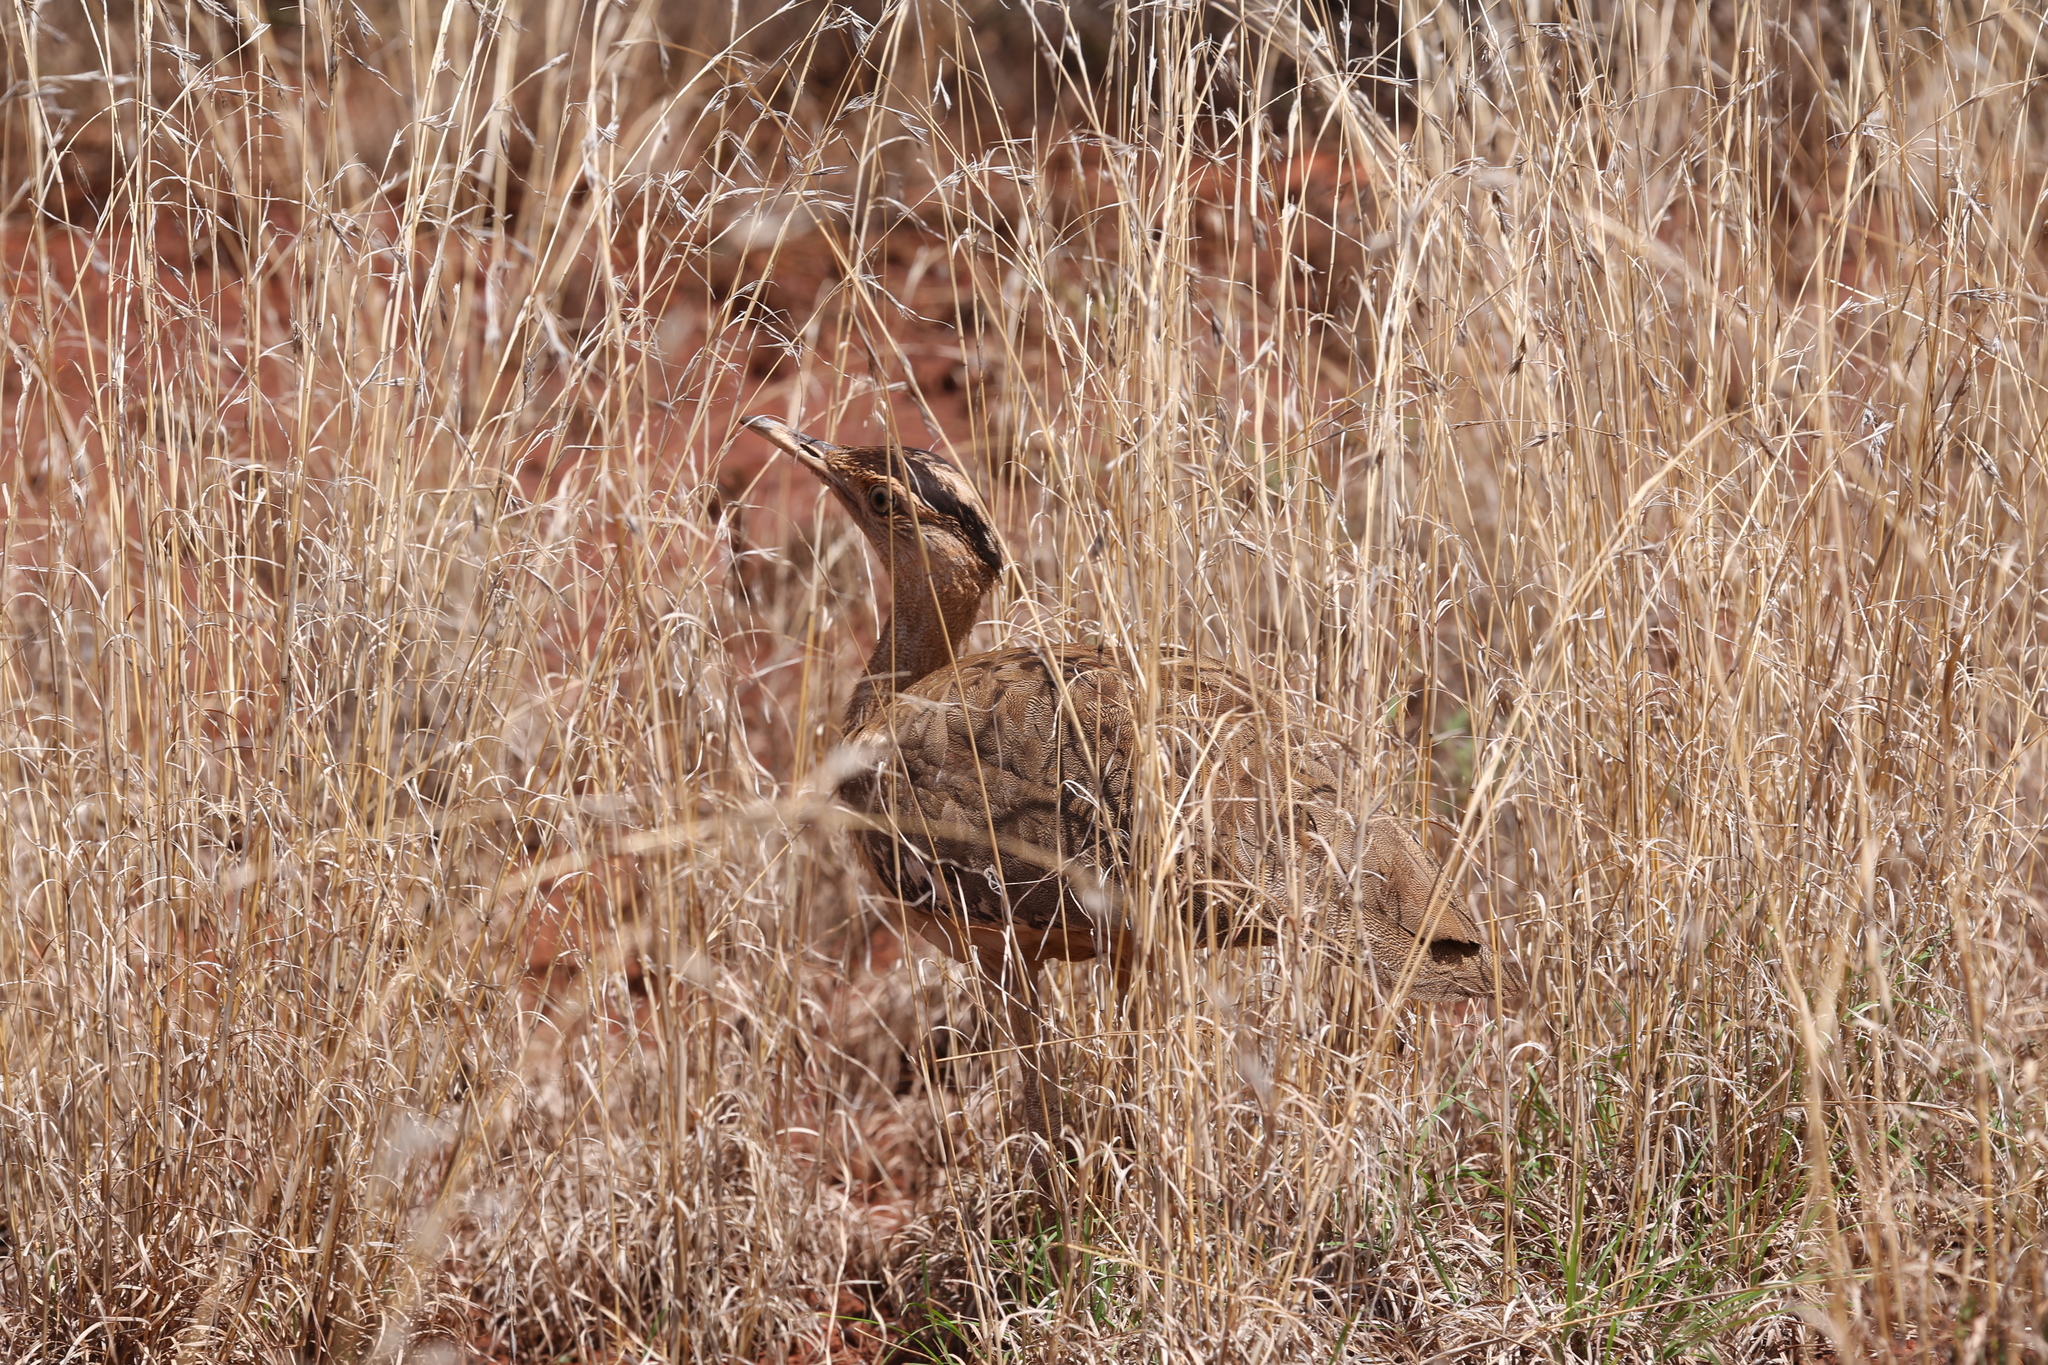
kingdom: Animalia
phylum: Chordata
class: Aves
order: Otidiformes
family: Otididae
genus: Ardeotis
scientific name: Ardeotis australis
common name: Australian bustard
